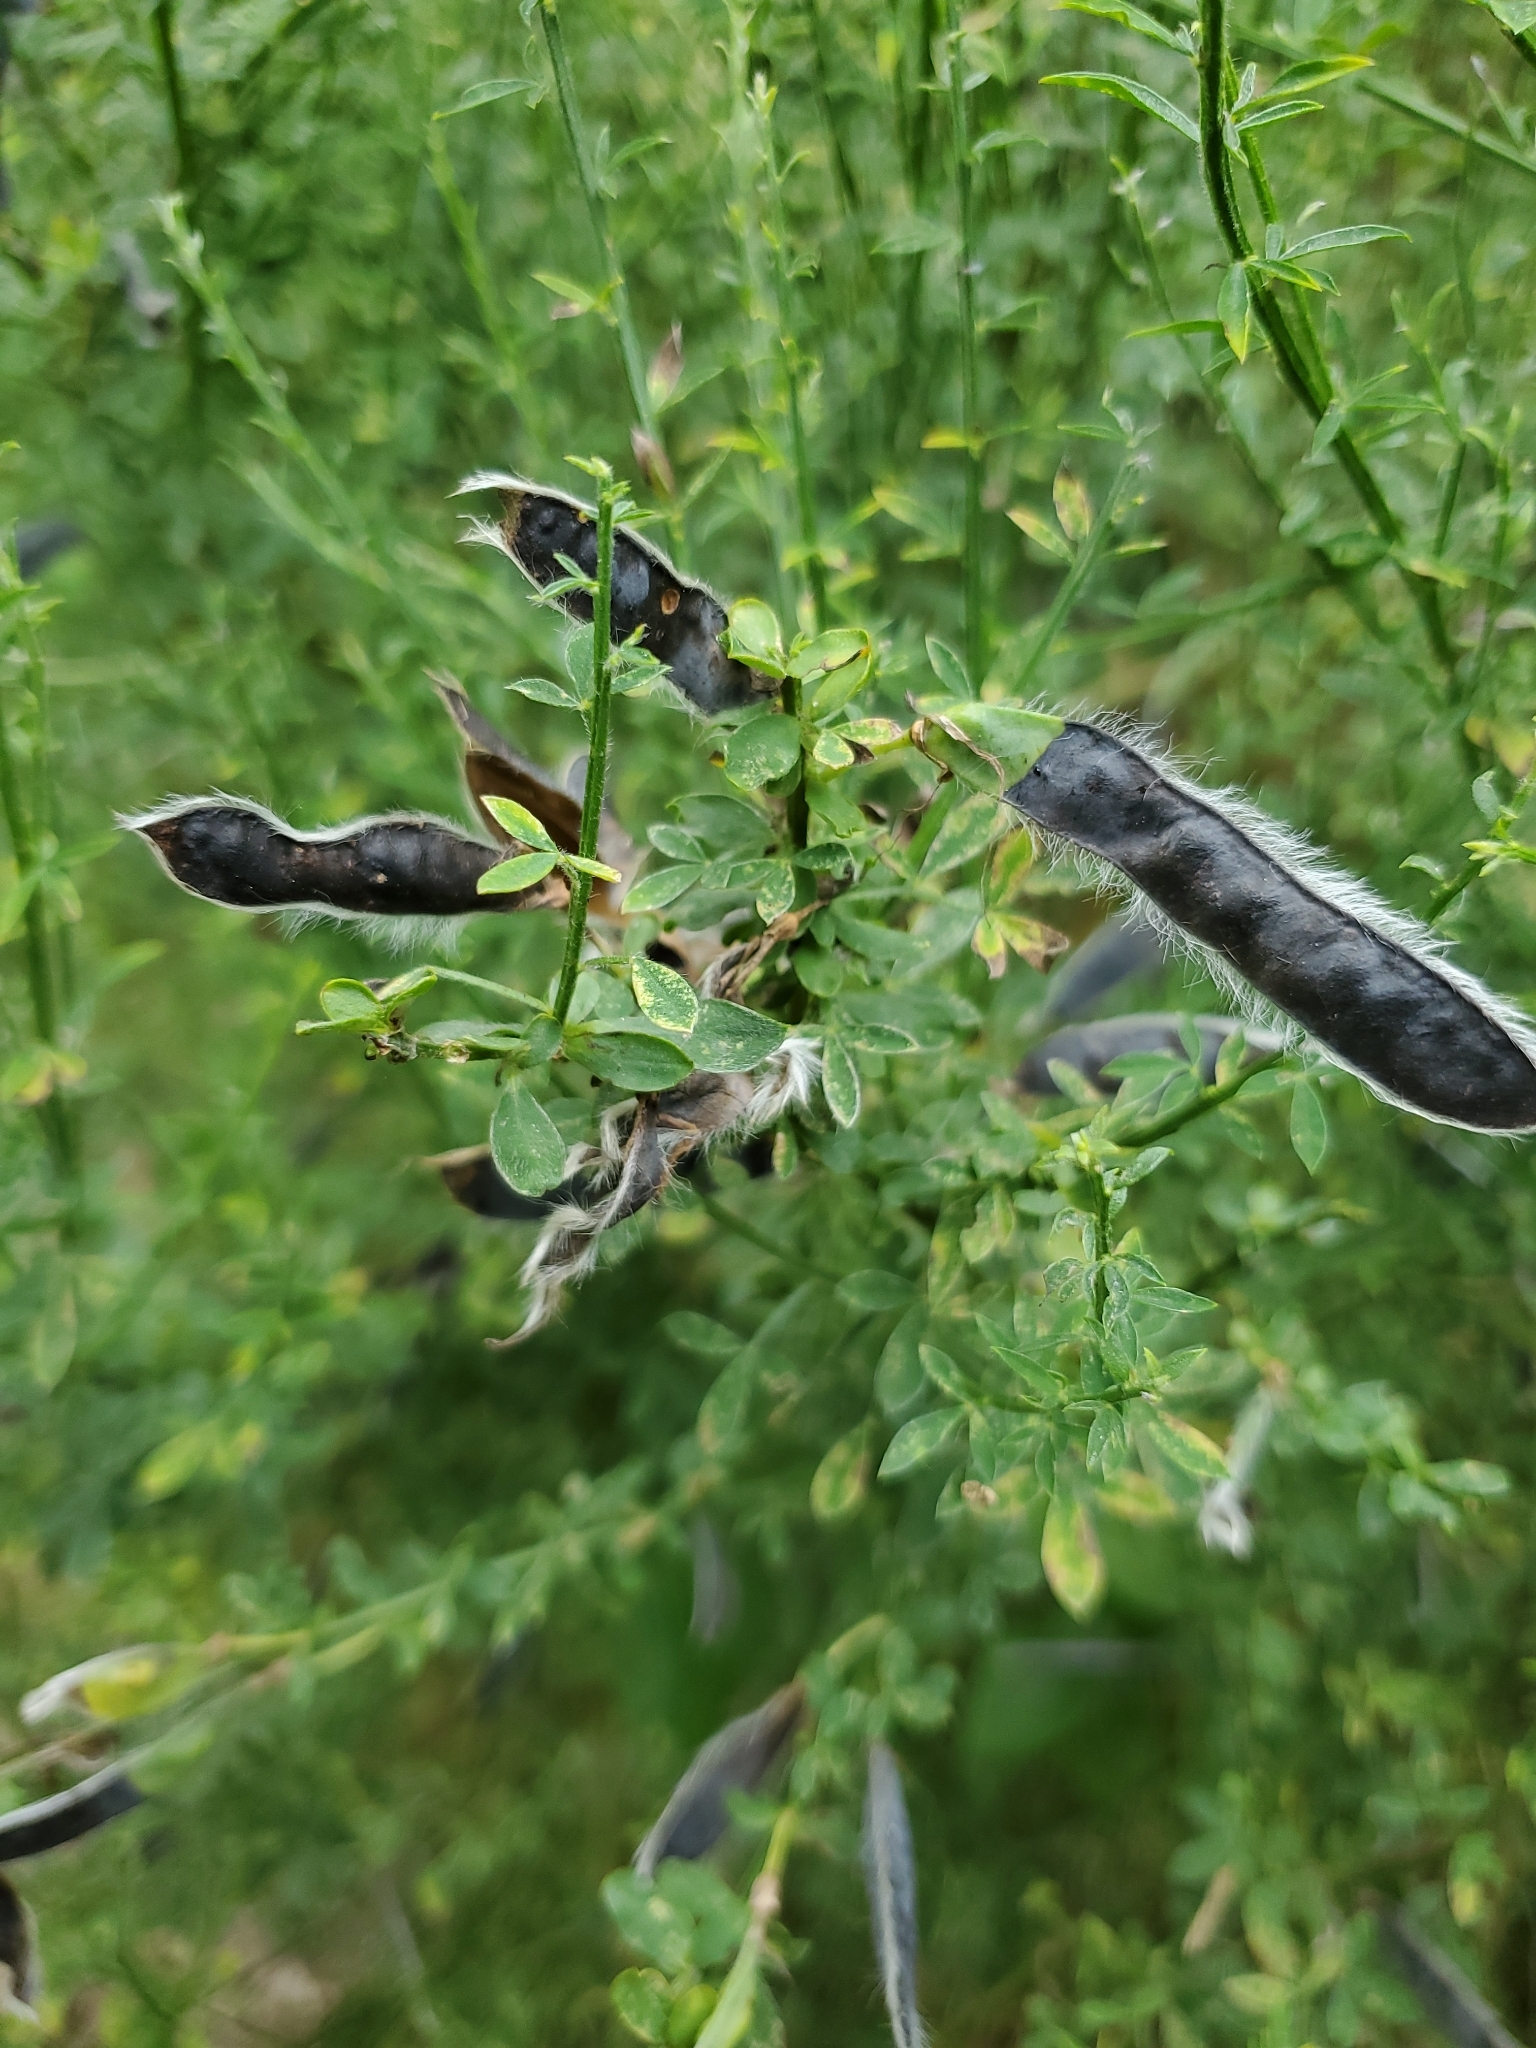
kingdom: Plantae
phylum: Tracheophyta
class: Magnoliopsida
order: Fabales
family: Fabaceae
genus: Cytisus
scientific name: Cytisus scoparius
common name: Scotch broom
